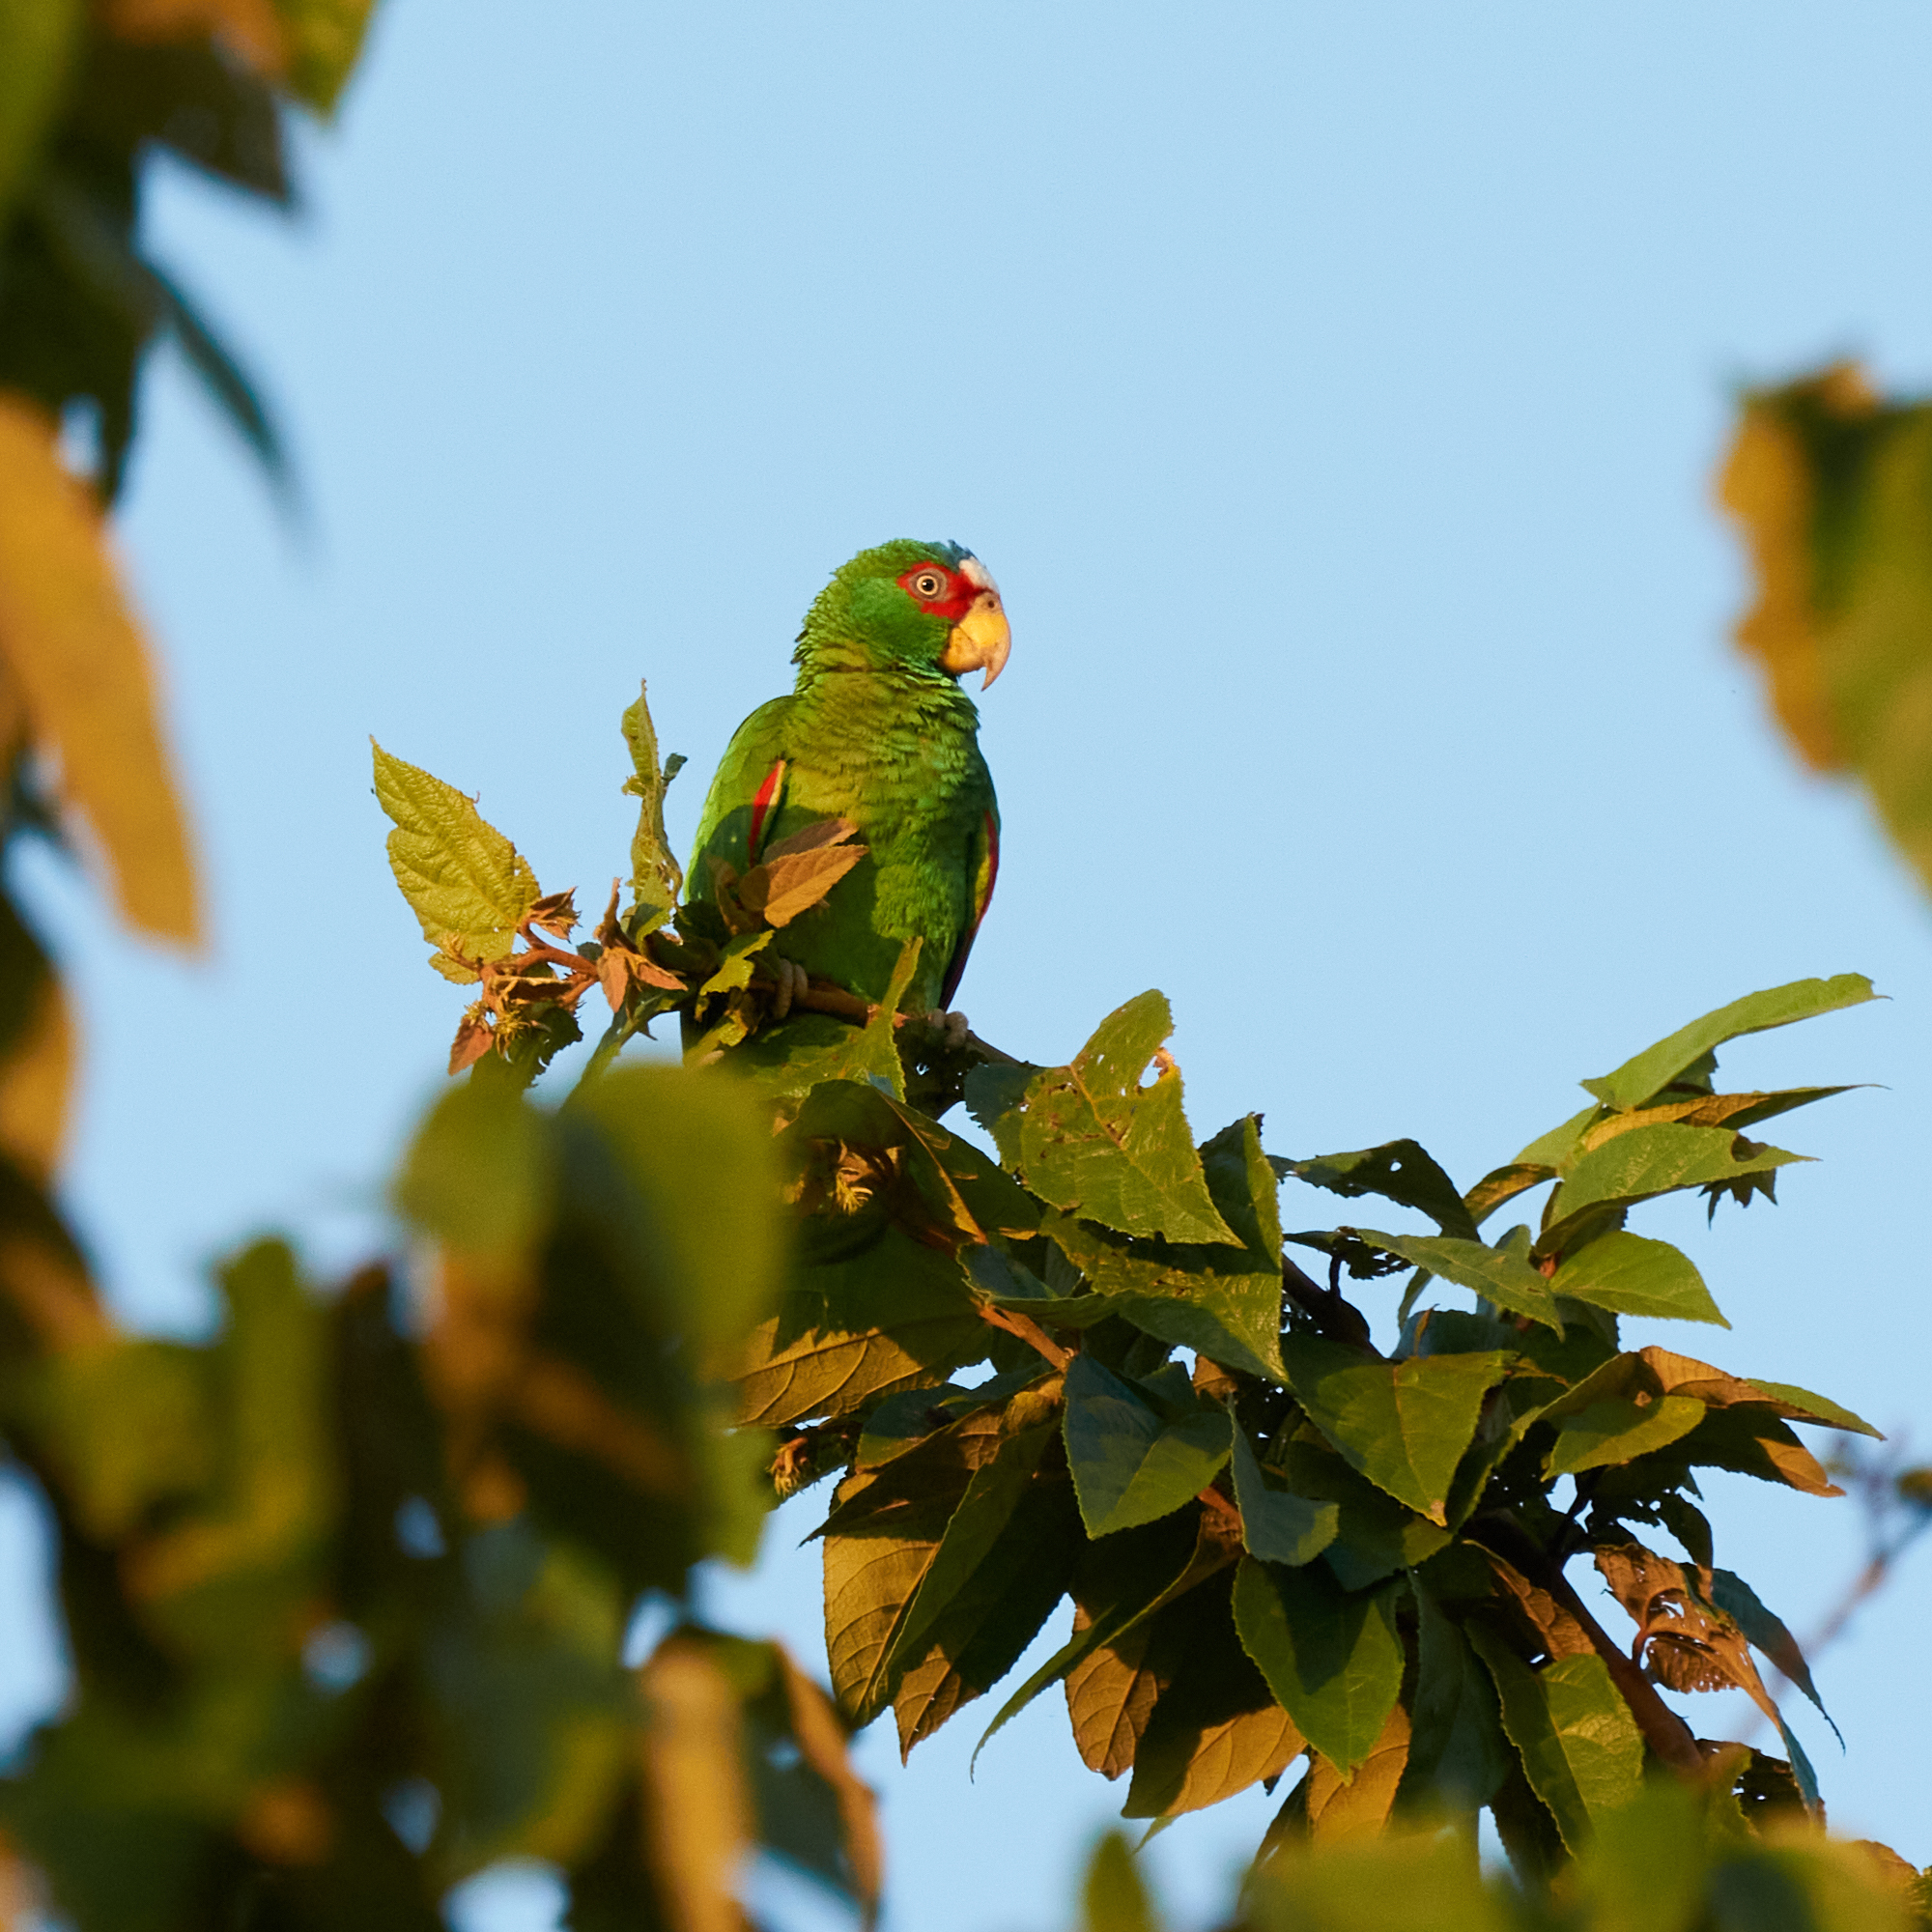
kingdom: Animalia
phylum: Chordata
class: Aves
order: Psittaciformes
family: Psittacidae
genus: Amazona
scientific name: Amazona albifrons
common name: White-fronted amazon
